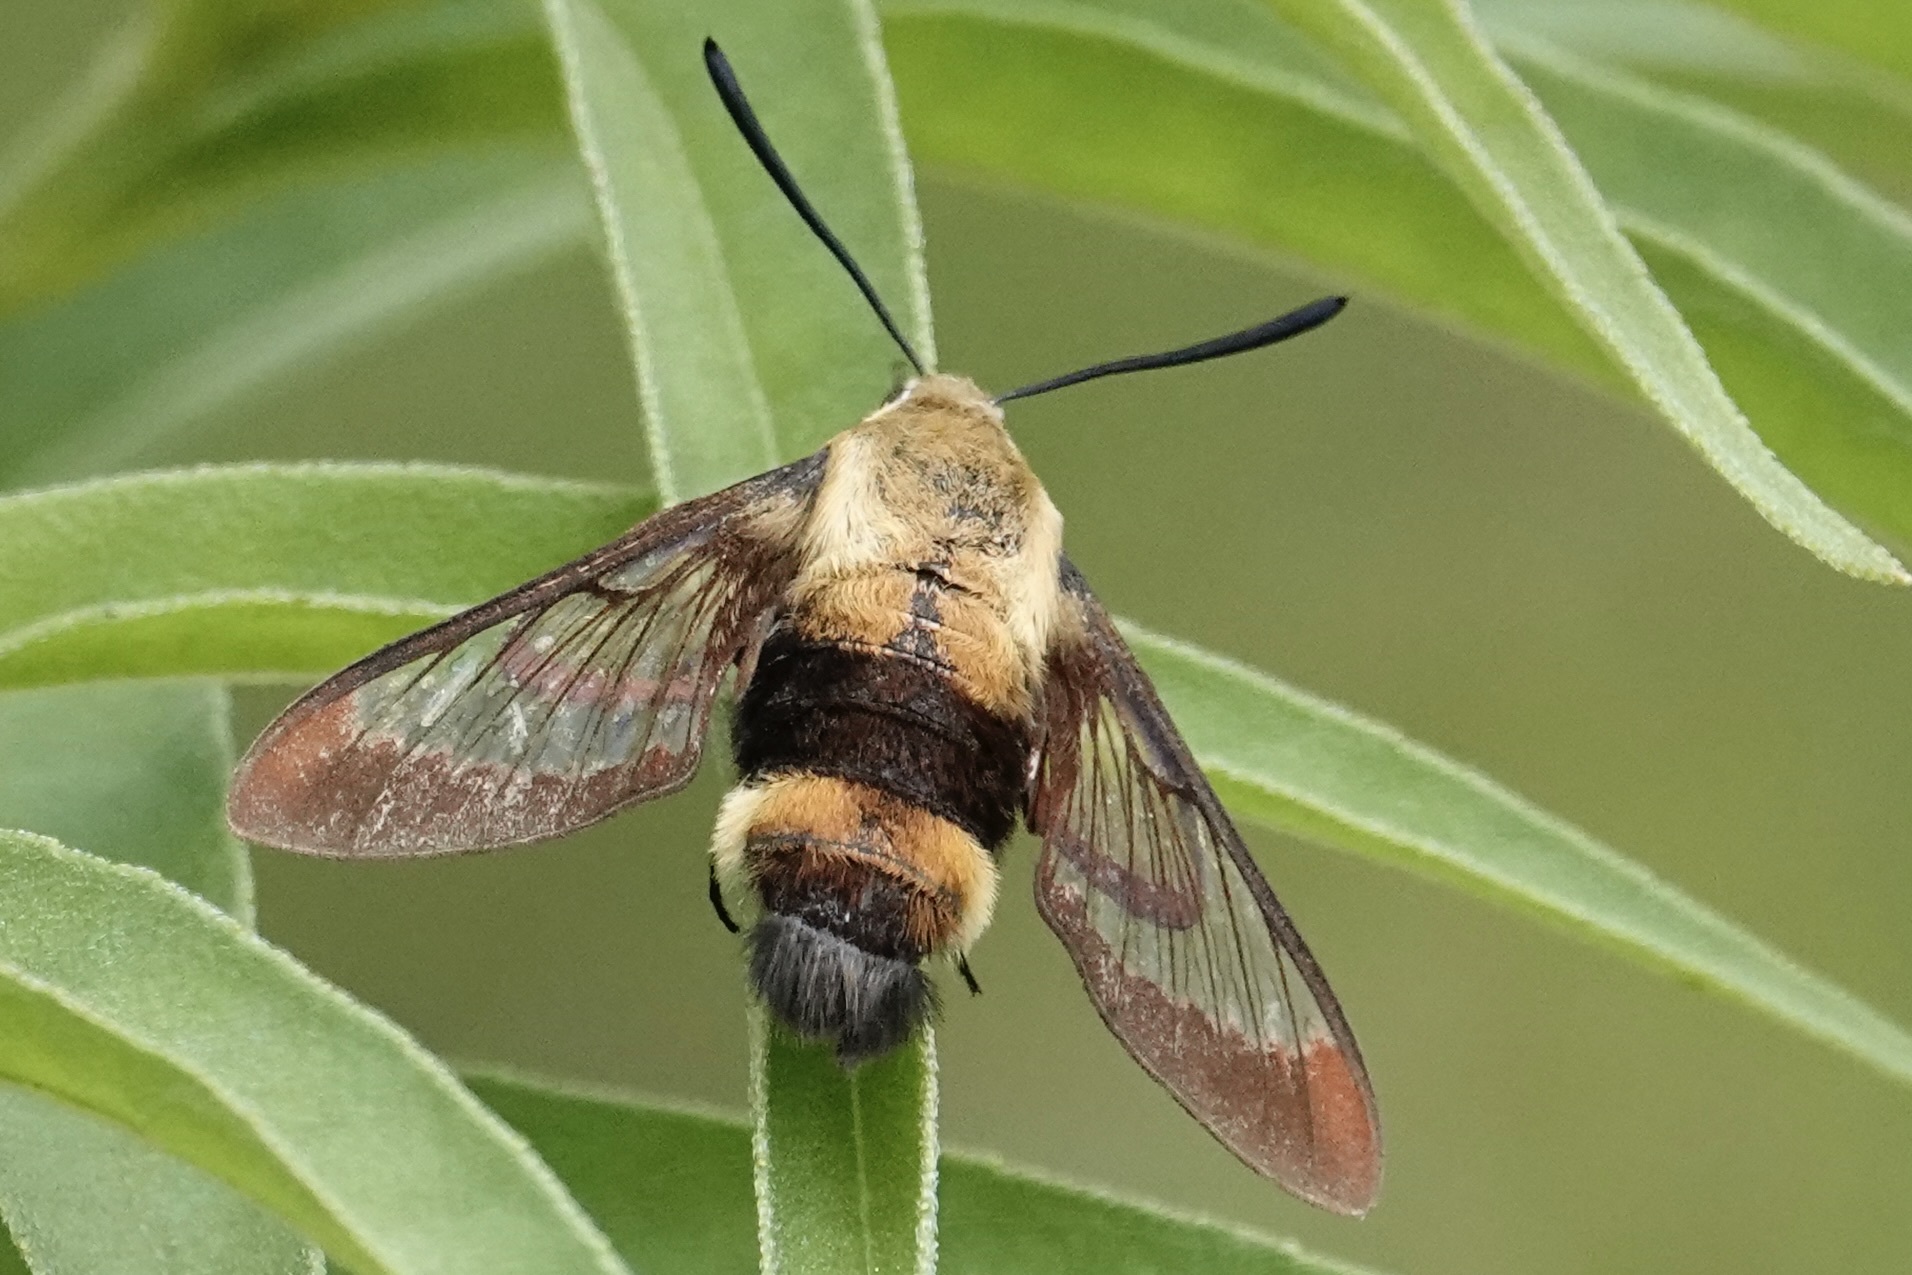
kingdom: Animalia
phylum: Arthropoda
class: Insecta
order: Lepidoptera
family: Sphingidae
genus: Hemaris
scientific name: Hemaris diffinis
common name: Bumblebee moth
